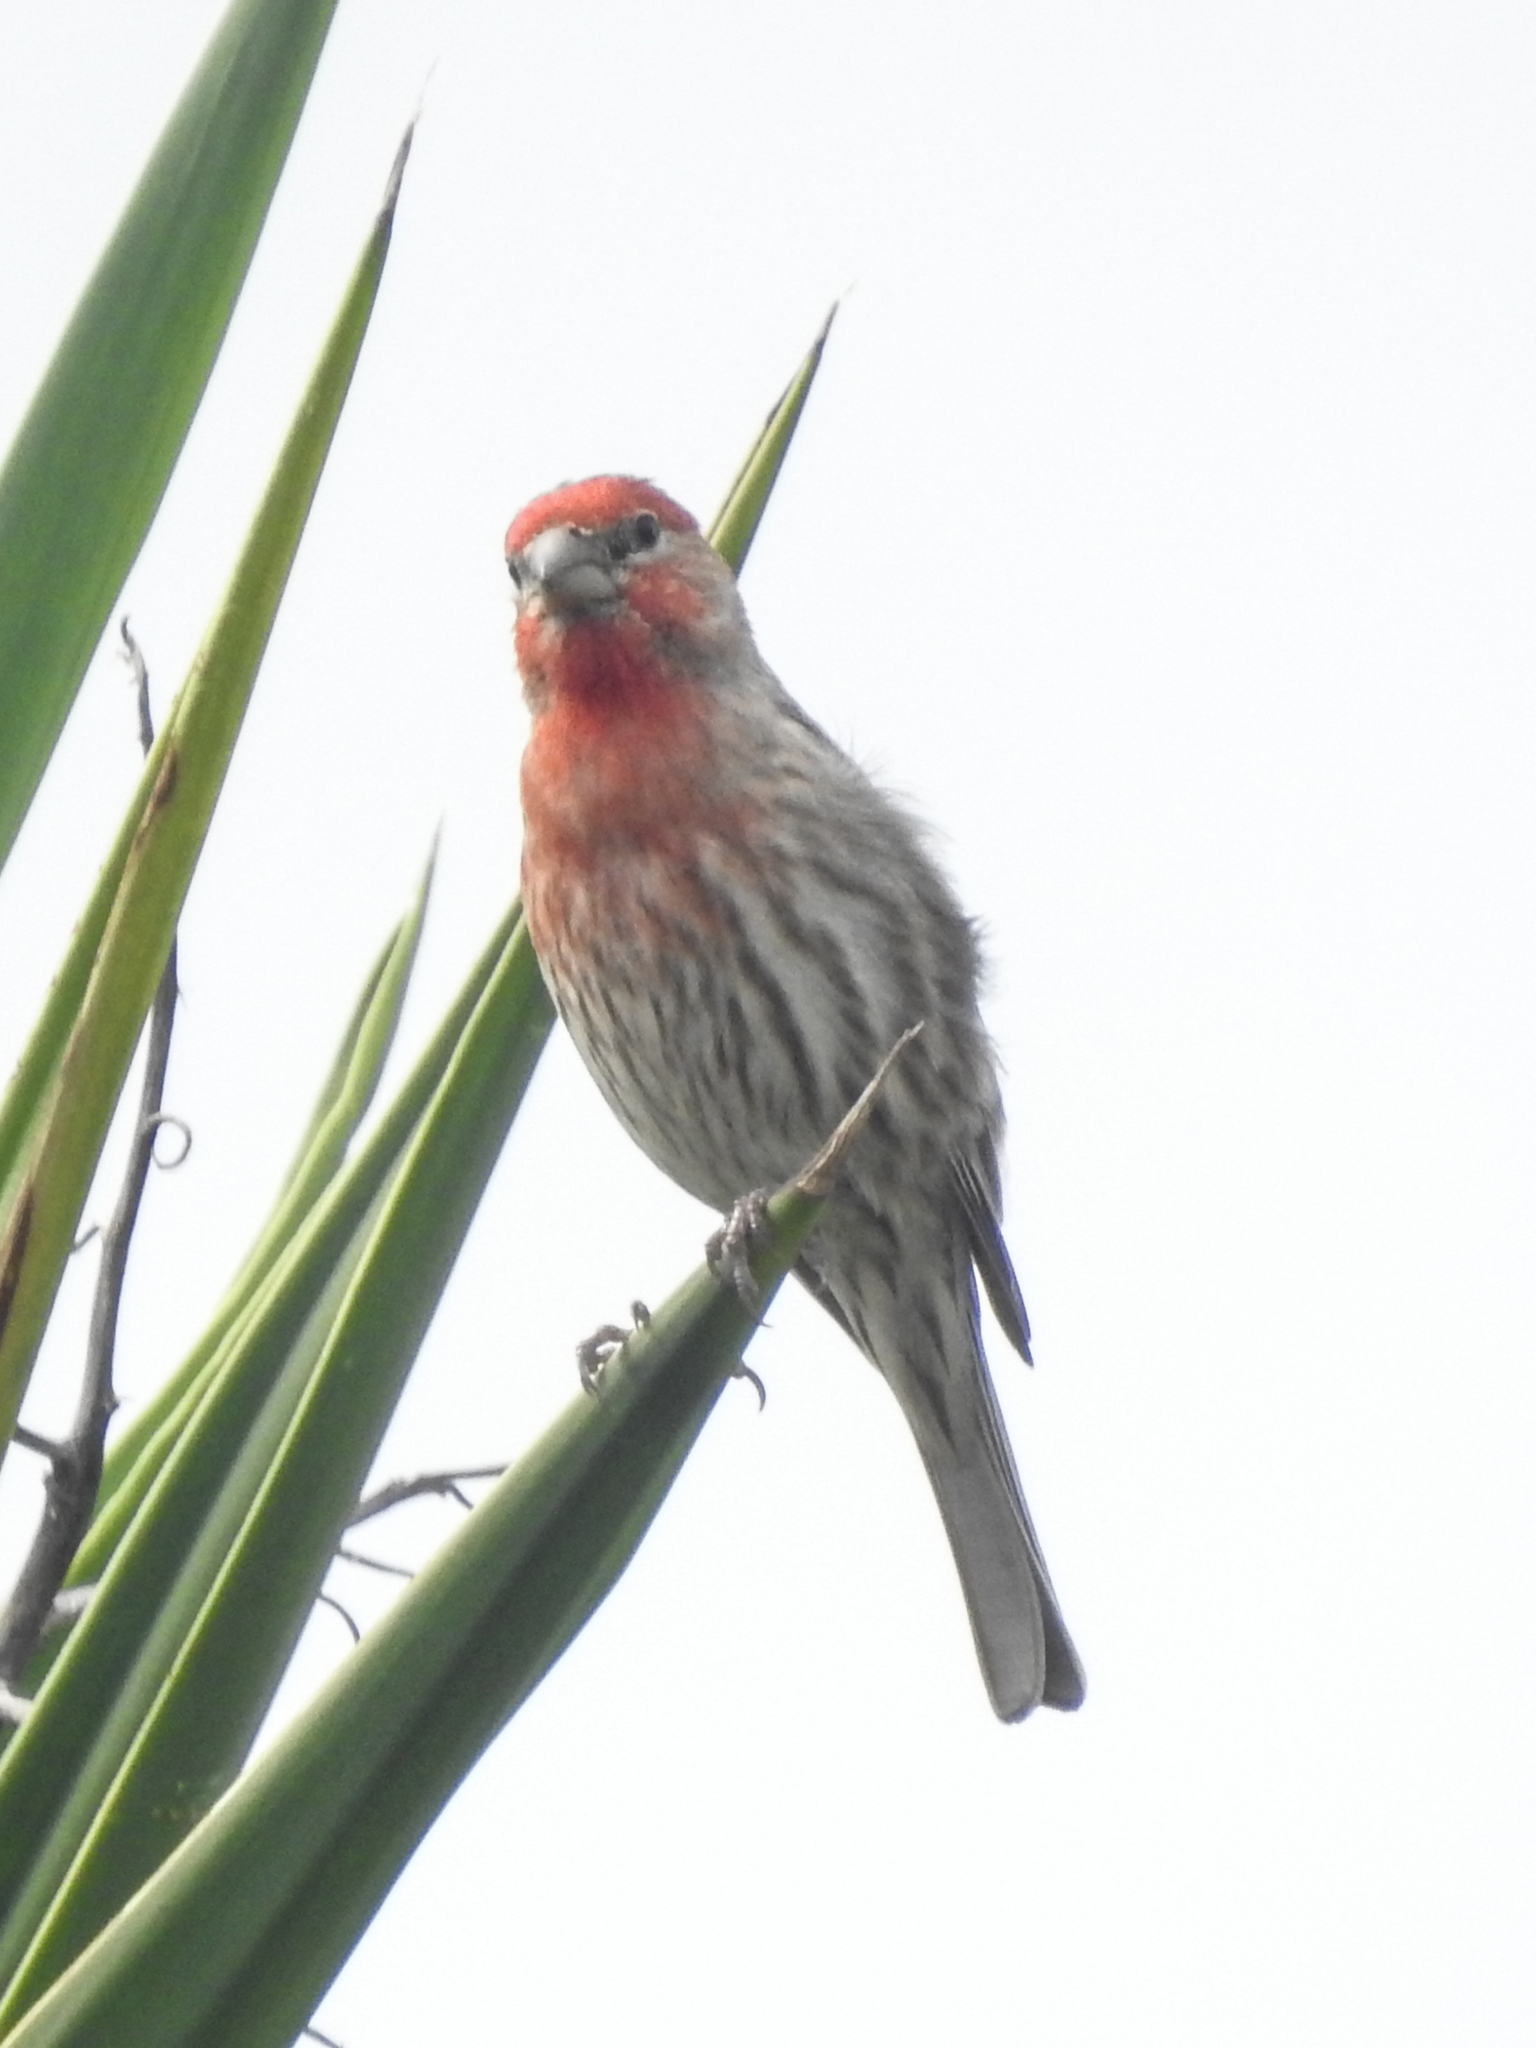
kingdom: Animalia
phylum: Chordata
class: Aves
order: Passeriformes
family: Fringillidae
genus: Haemorhous
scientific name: Haemorhous mexicanus
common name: House finch
